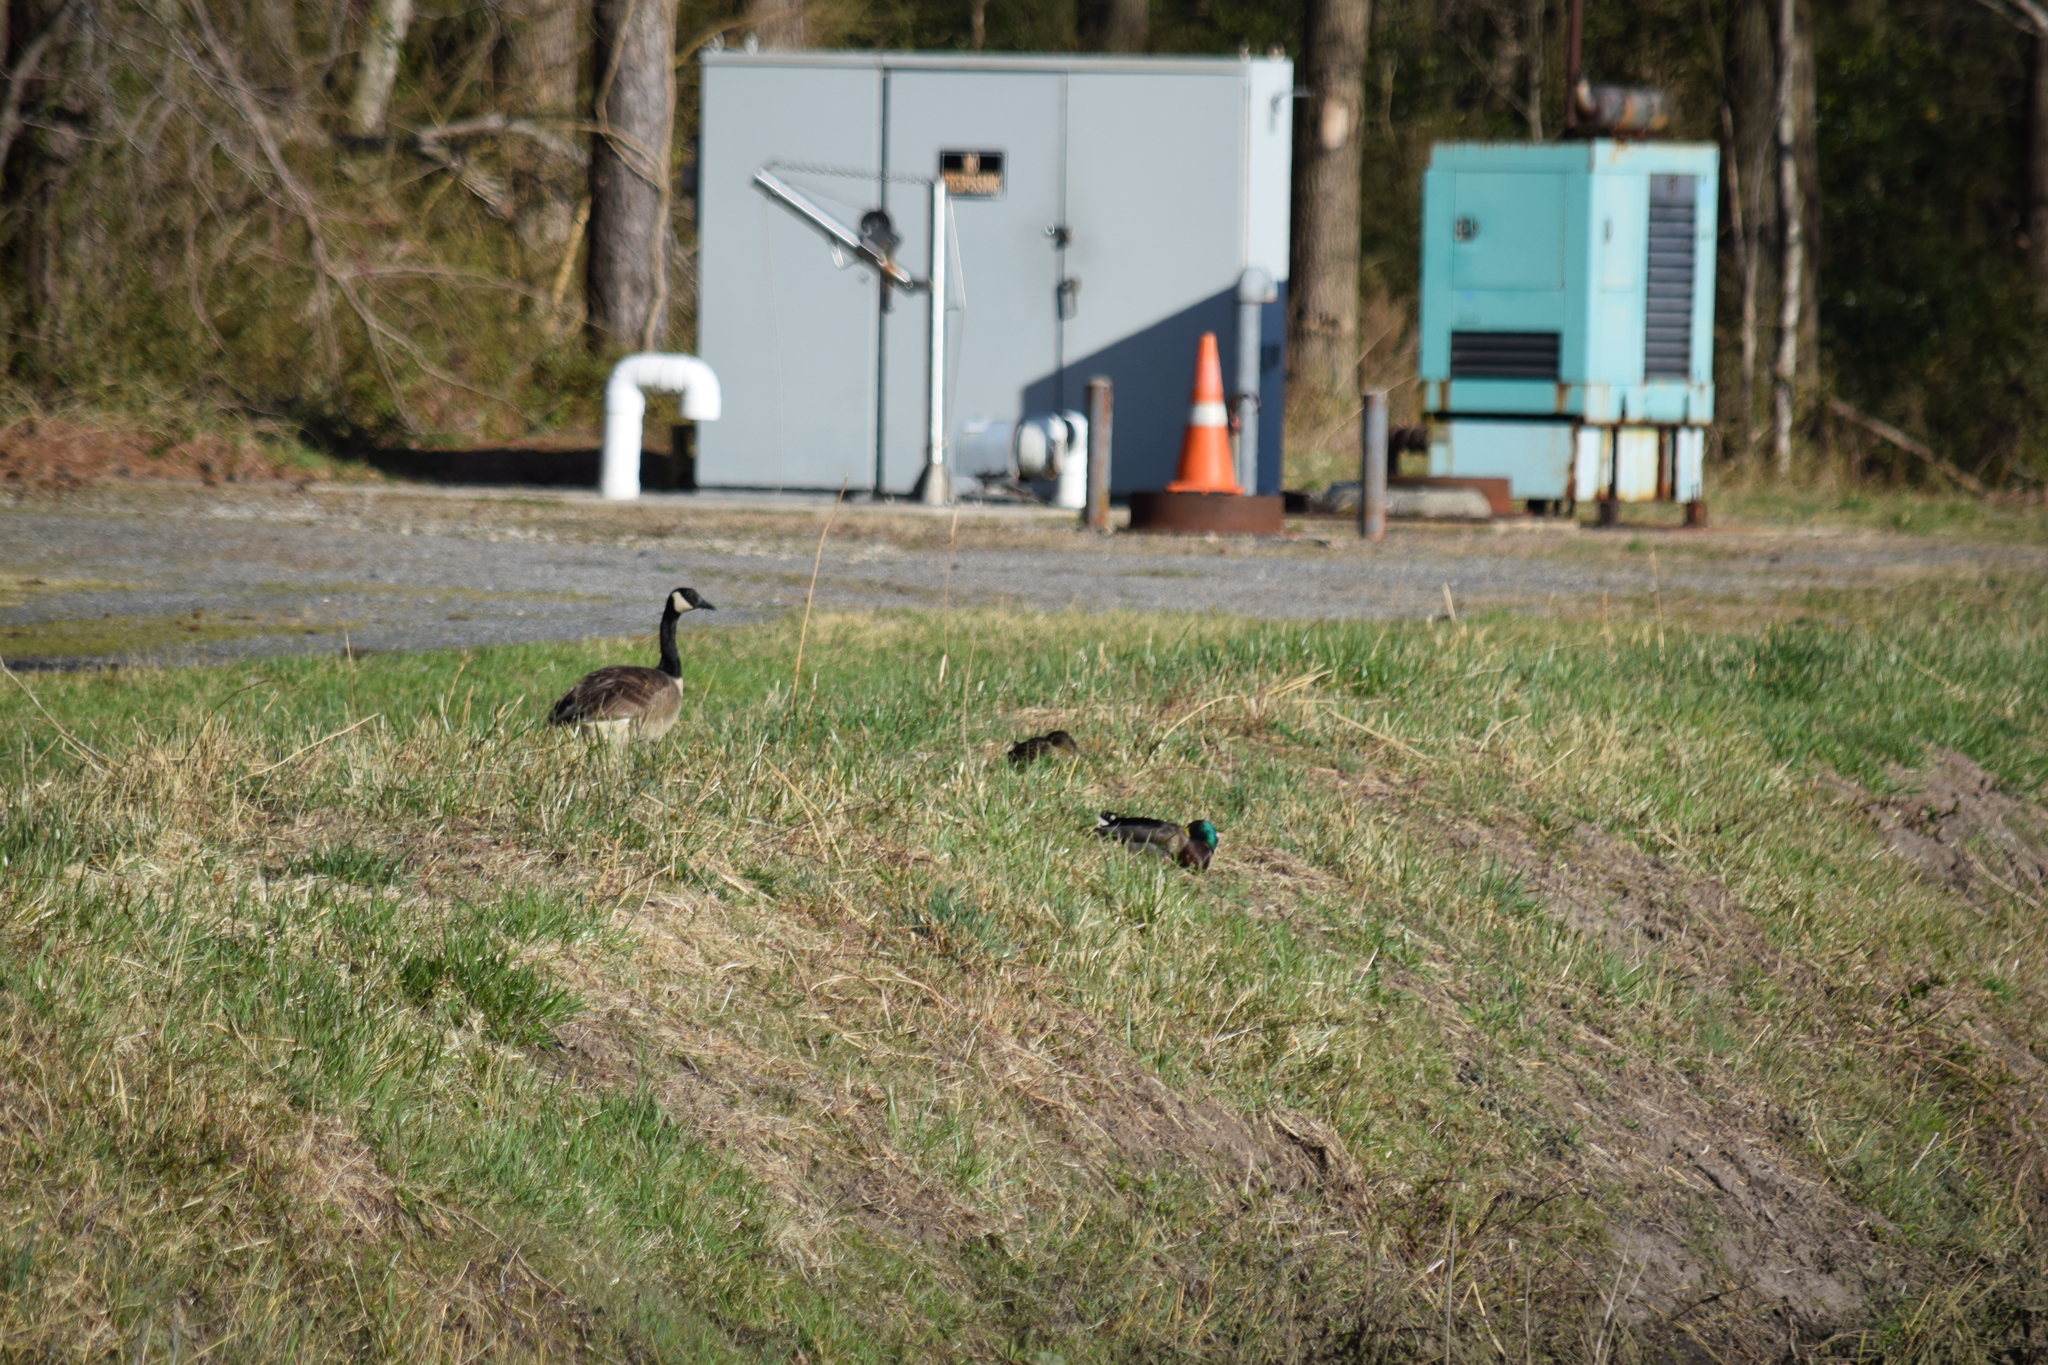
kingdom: Animalia
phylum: Chordata
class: Aves
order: Anseriformes
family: Anatidae
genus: Branta
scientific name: Branta canadensis
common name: Canada goose
